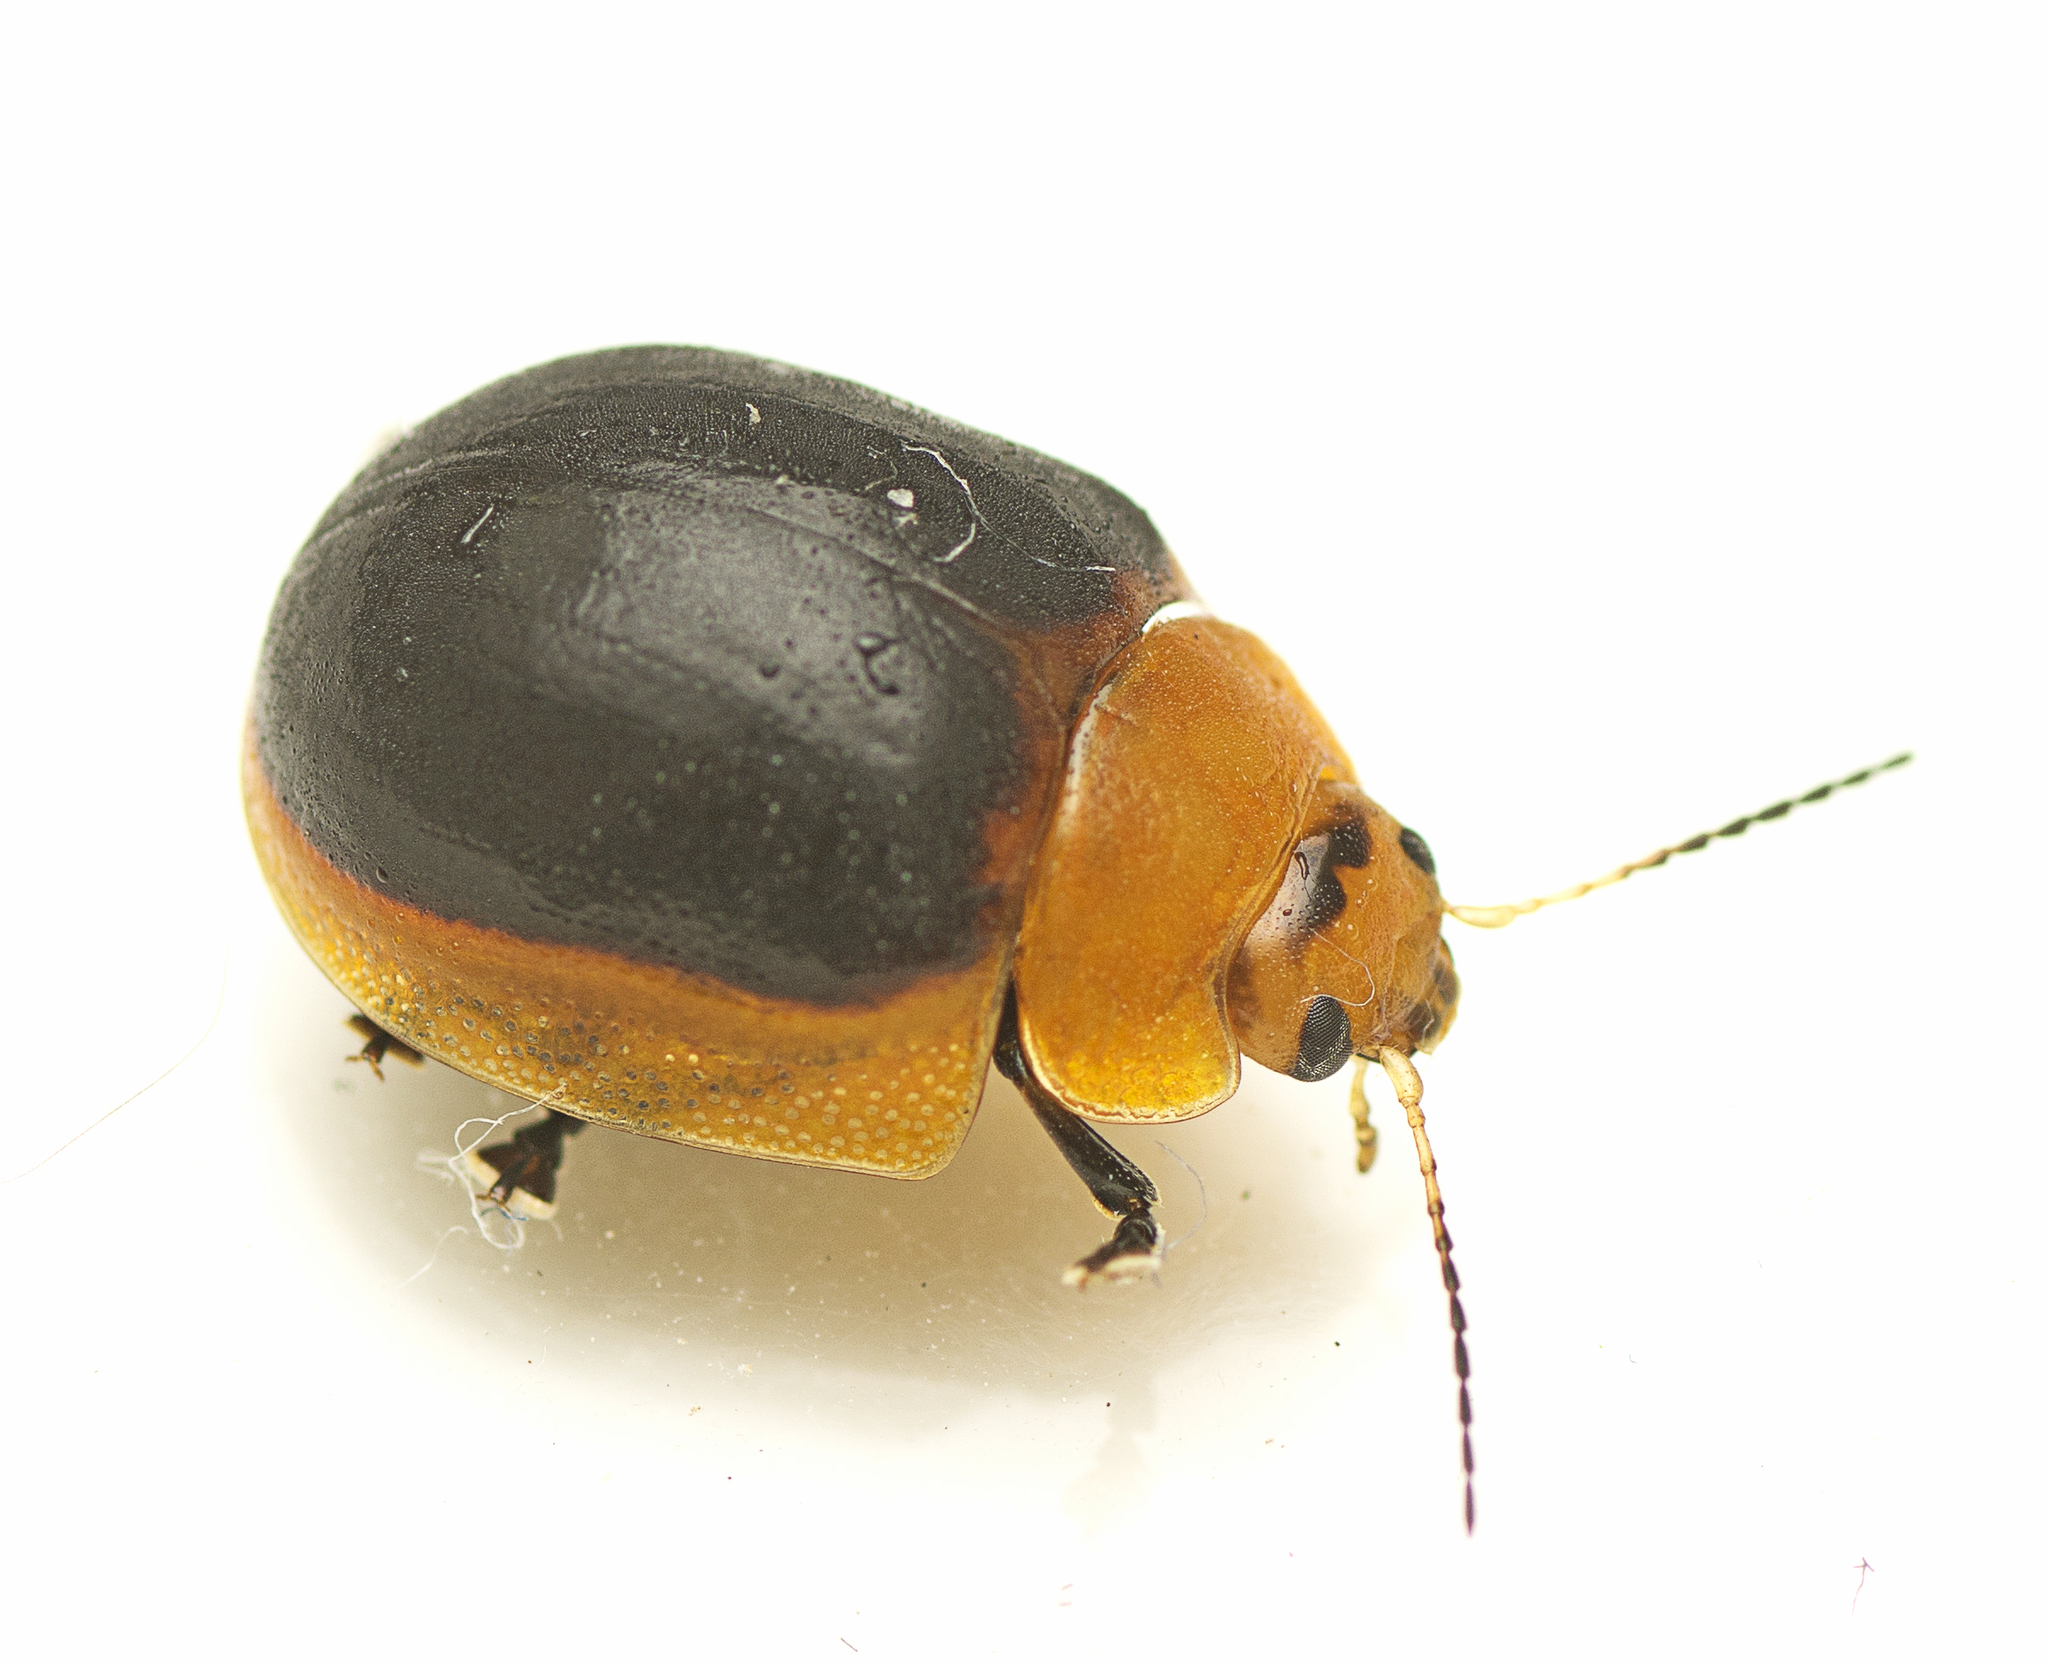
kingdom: Animalia
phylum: Arthropoda
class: Insecta
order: Coleoptera
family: Chrysomelidae
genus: Paropsisterna
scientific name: Paropsisterna cloelia
